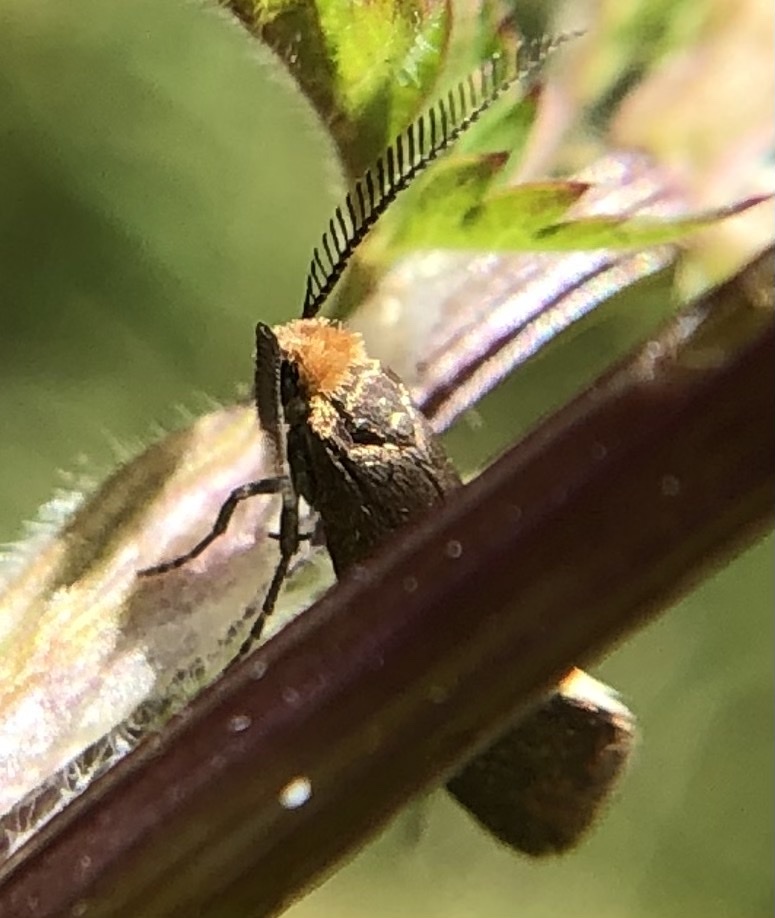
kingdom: Animalia
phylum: Arthropoda
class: Insecta
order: Lepidoptera
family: Incurvariidae
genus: Incurvaria
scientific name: Incurvaria masculella
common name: Feathered leaf-cutter
